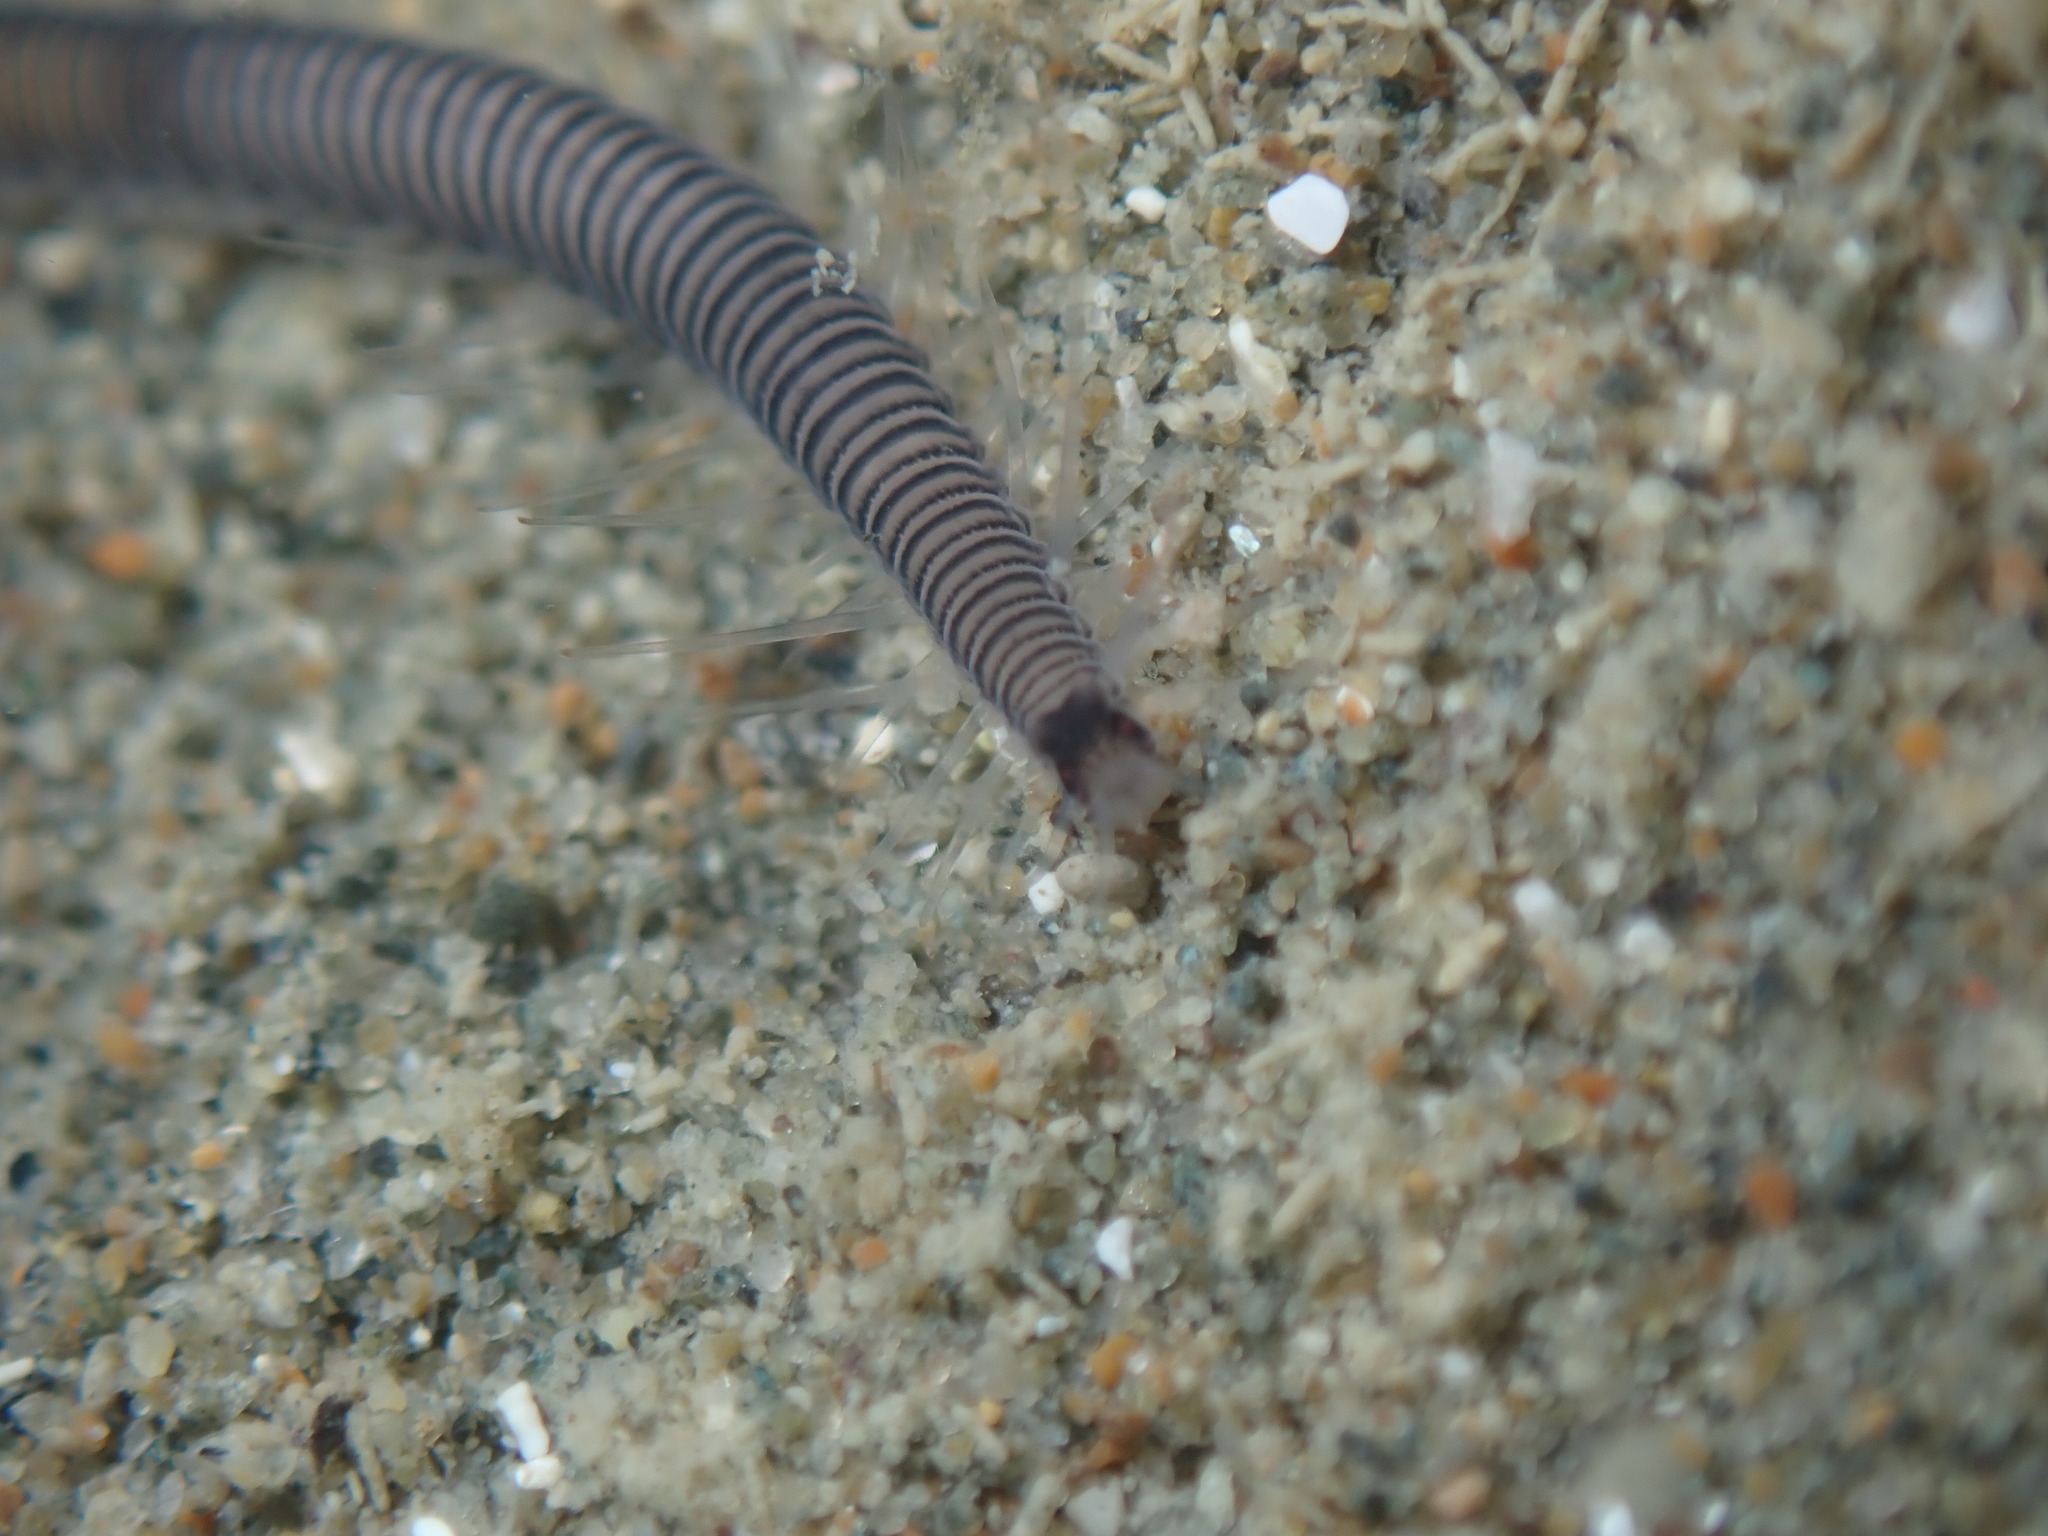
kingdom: Animalia
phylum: Annelida
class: Polychaeta
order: Phyllodocida
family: Syllidae
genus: Odontosyllis
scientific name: Odontosyllis polycera
